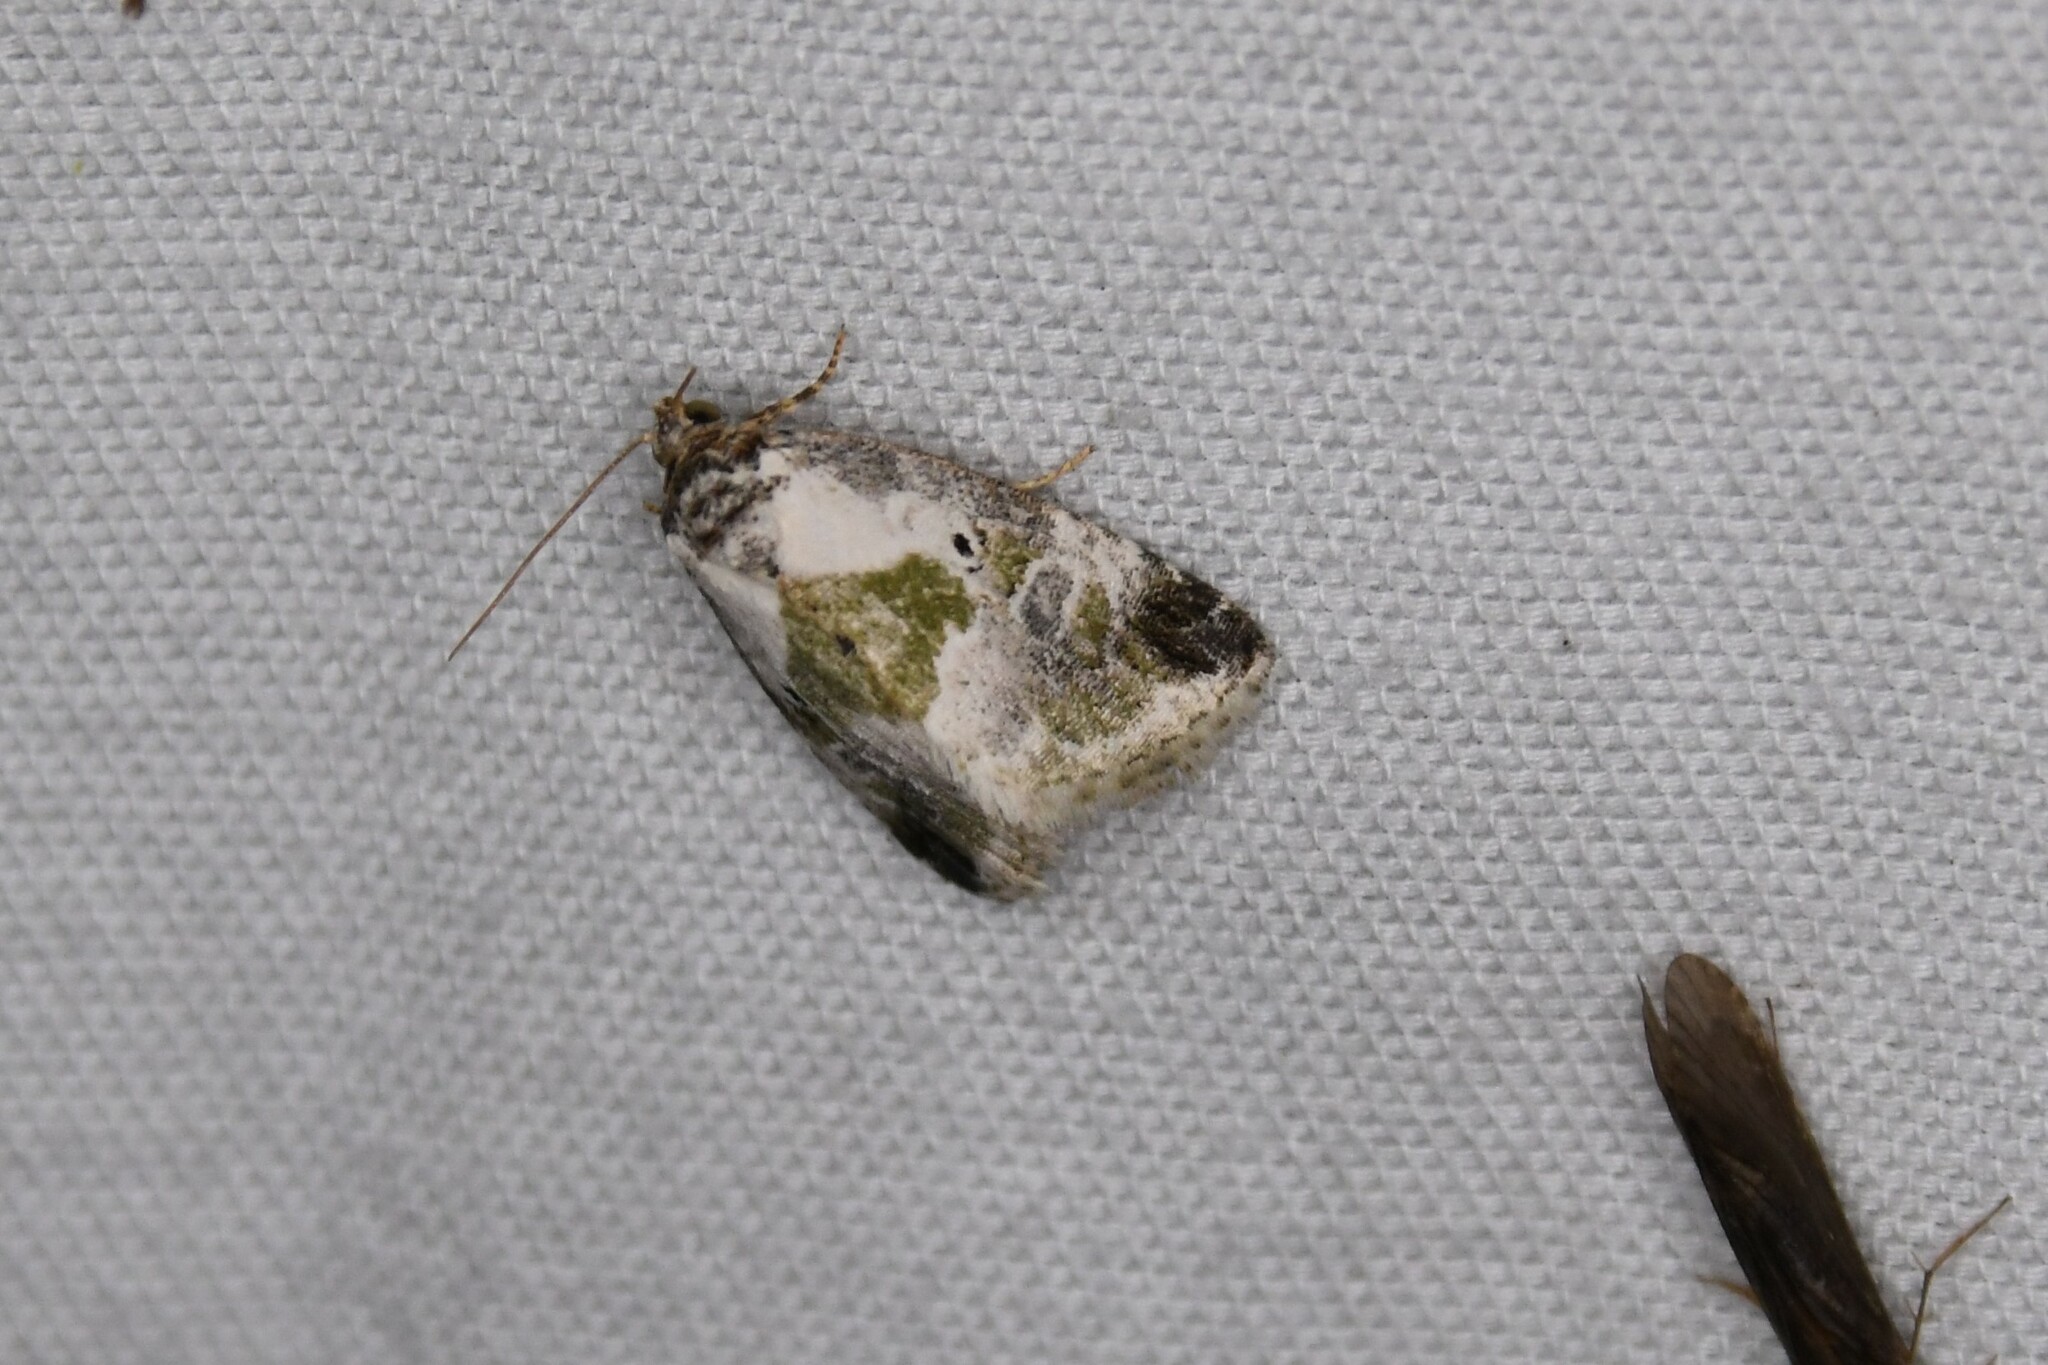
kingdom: Animalia
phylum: Arthropoda
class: Insecta
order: Lepidoptera
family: Noctuidae
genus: Maliattha
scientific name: Maliattha synochitis
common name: Black-dotted glyph
